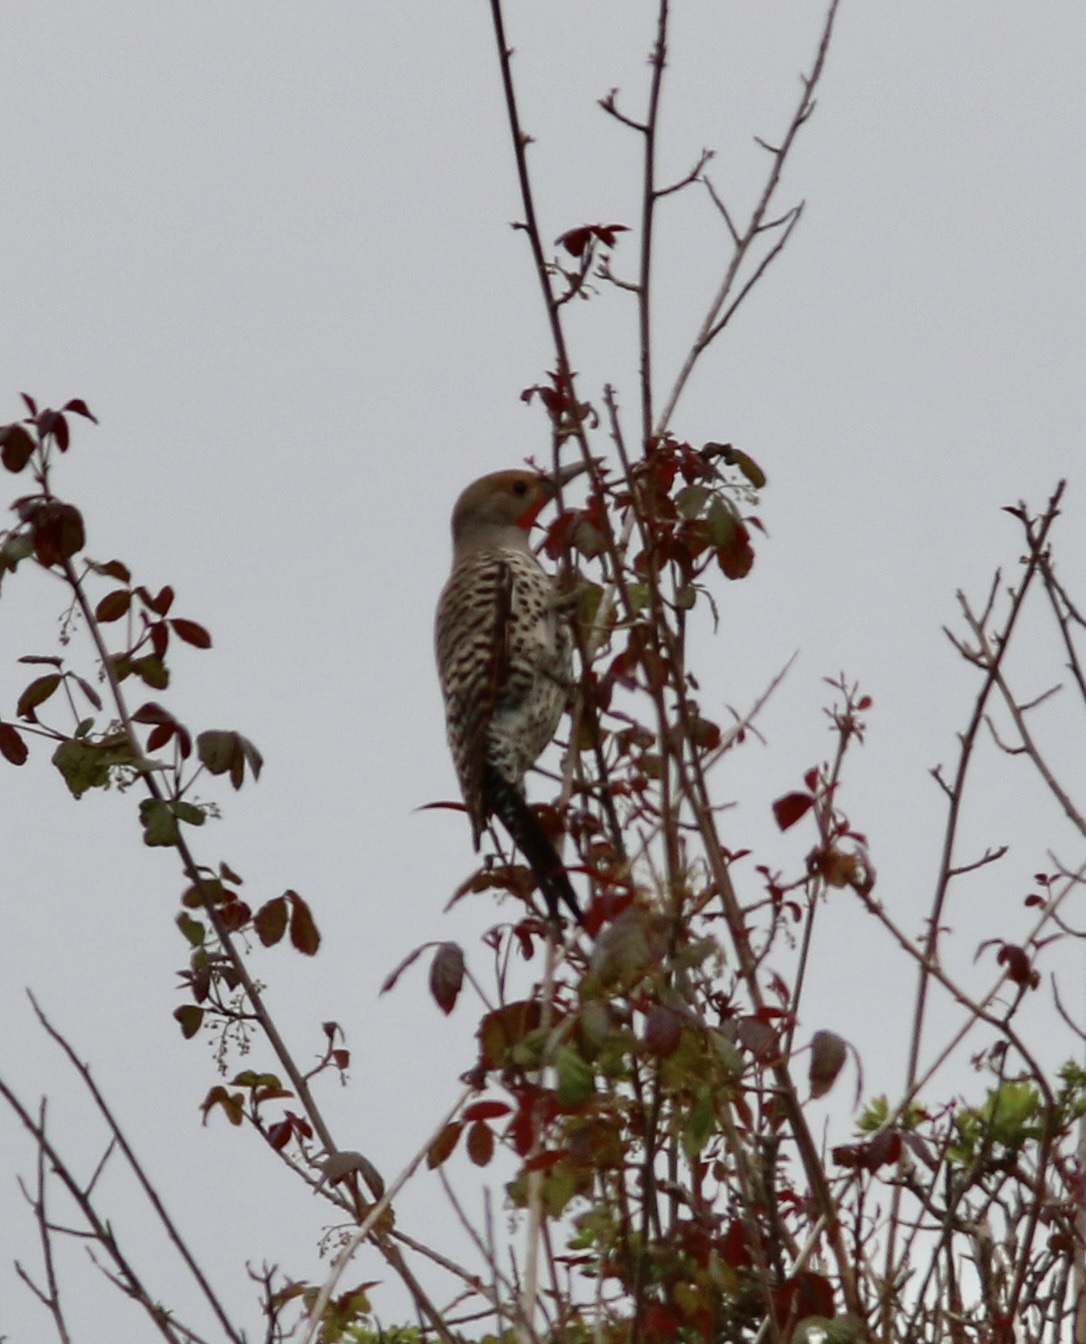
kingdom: Animalia
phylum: Chordata
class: Aves
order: Piciformes
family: Picidae
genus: Colaptes
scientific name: Colaptes auratus
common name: Northern flicker
